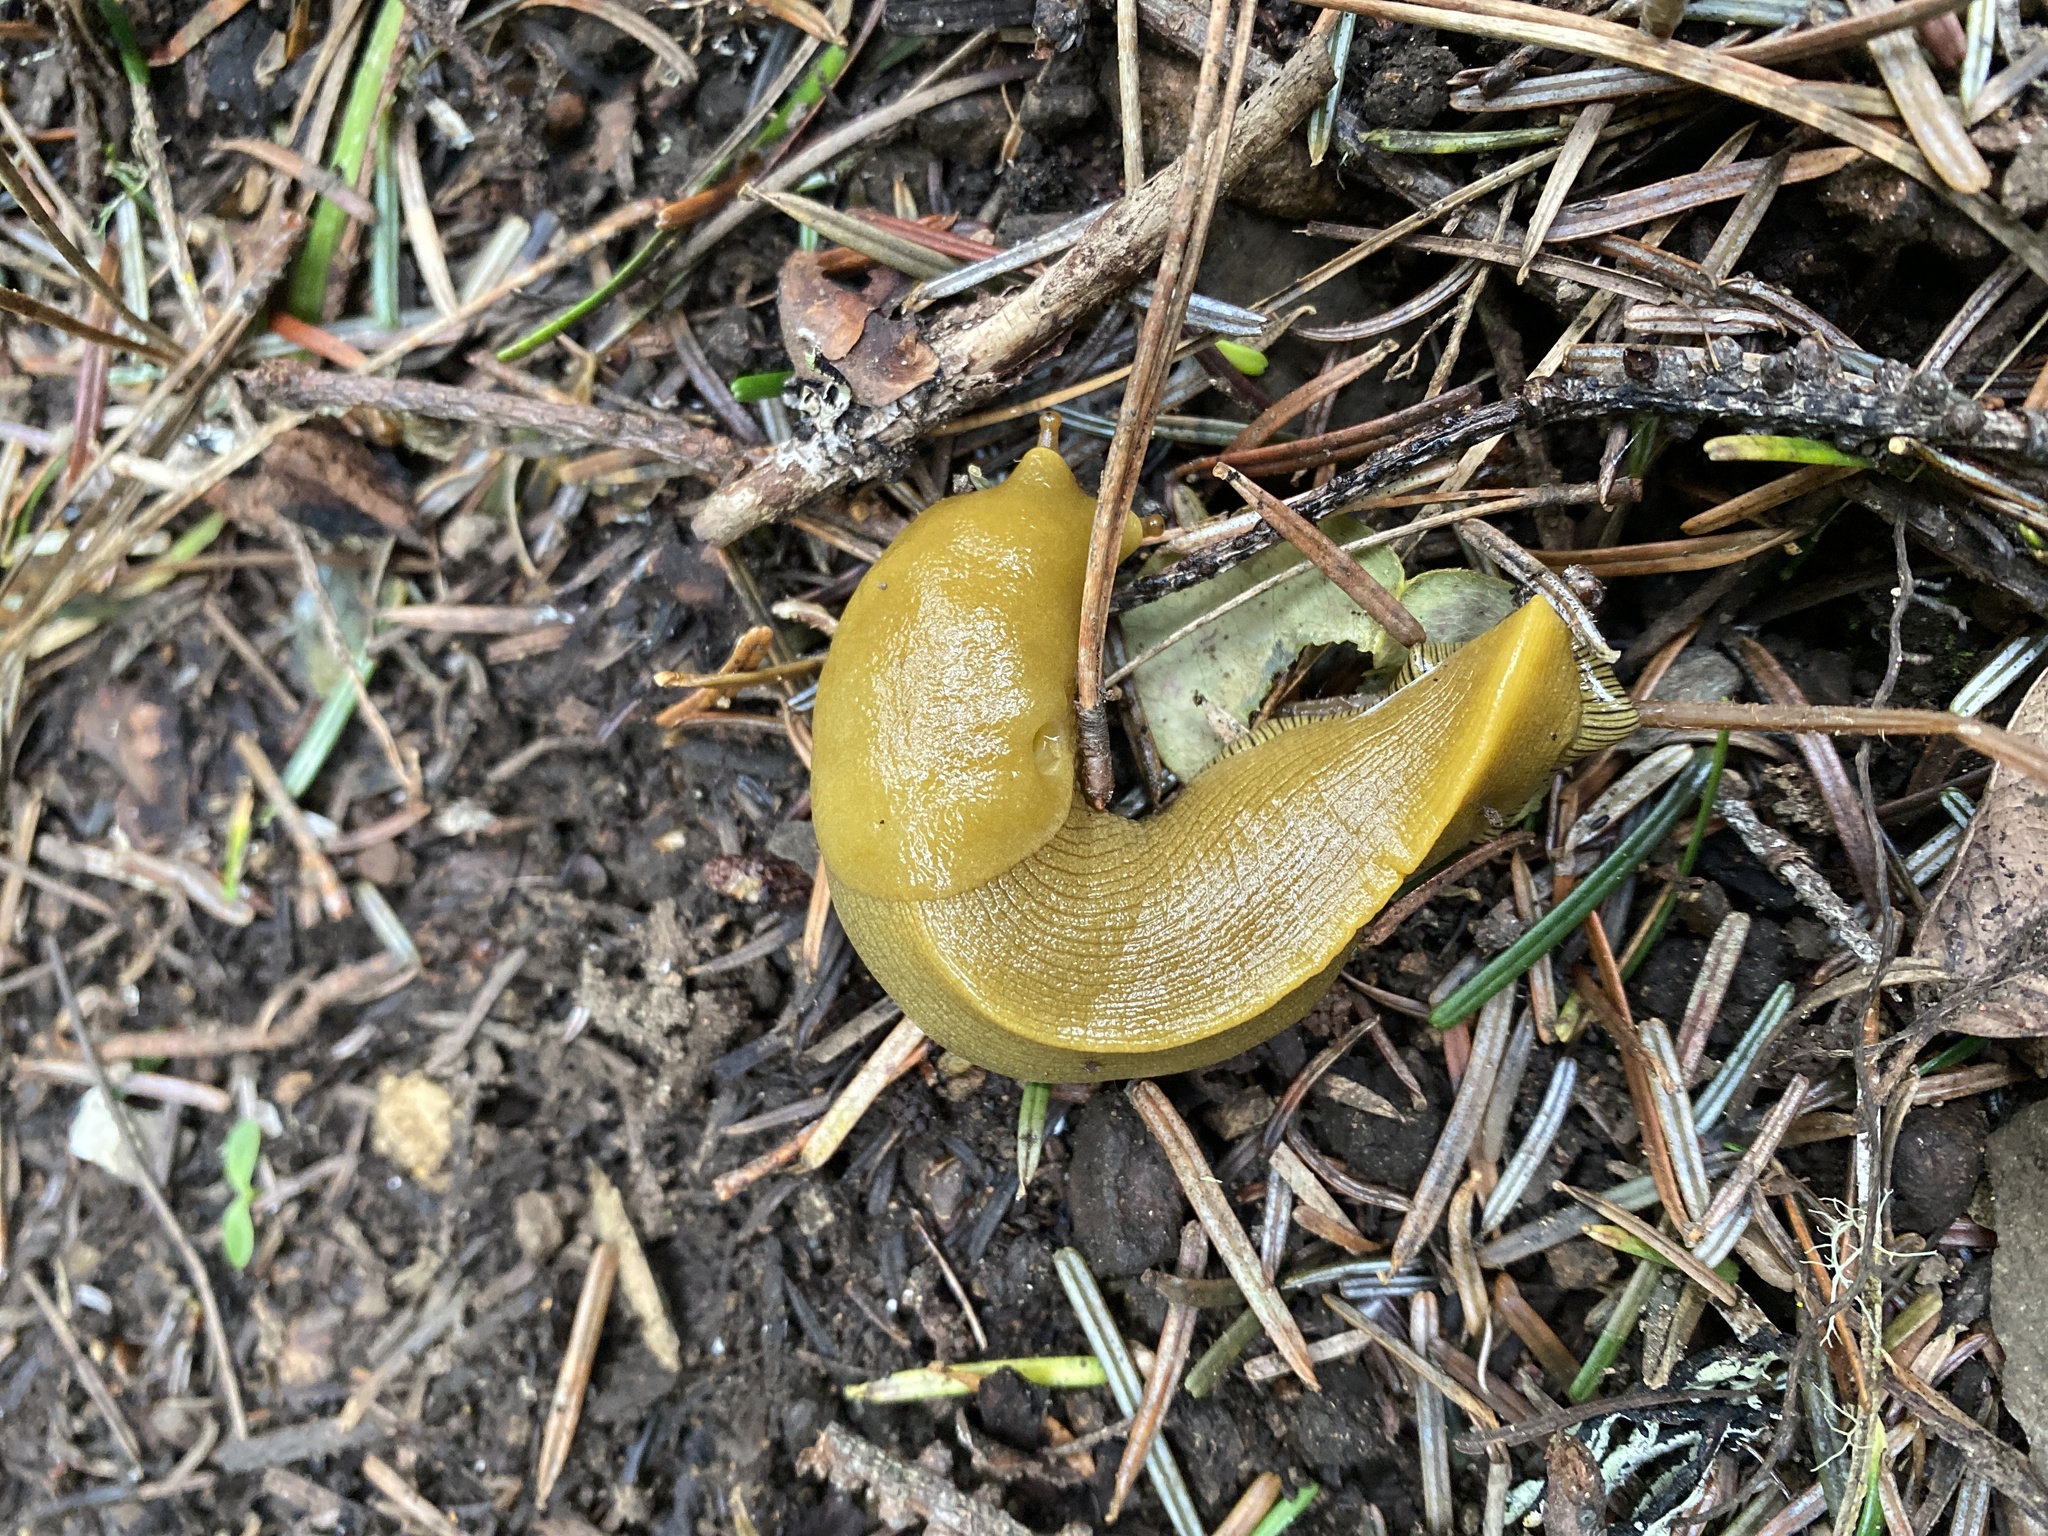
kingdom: Animalia
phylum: Mollusca
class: Gastropoda
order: Stylommatophora
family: Ariolimacidae
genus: Ariolimax
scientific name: Ariolimax buttoni
